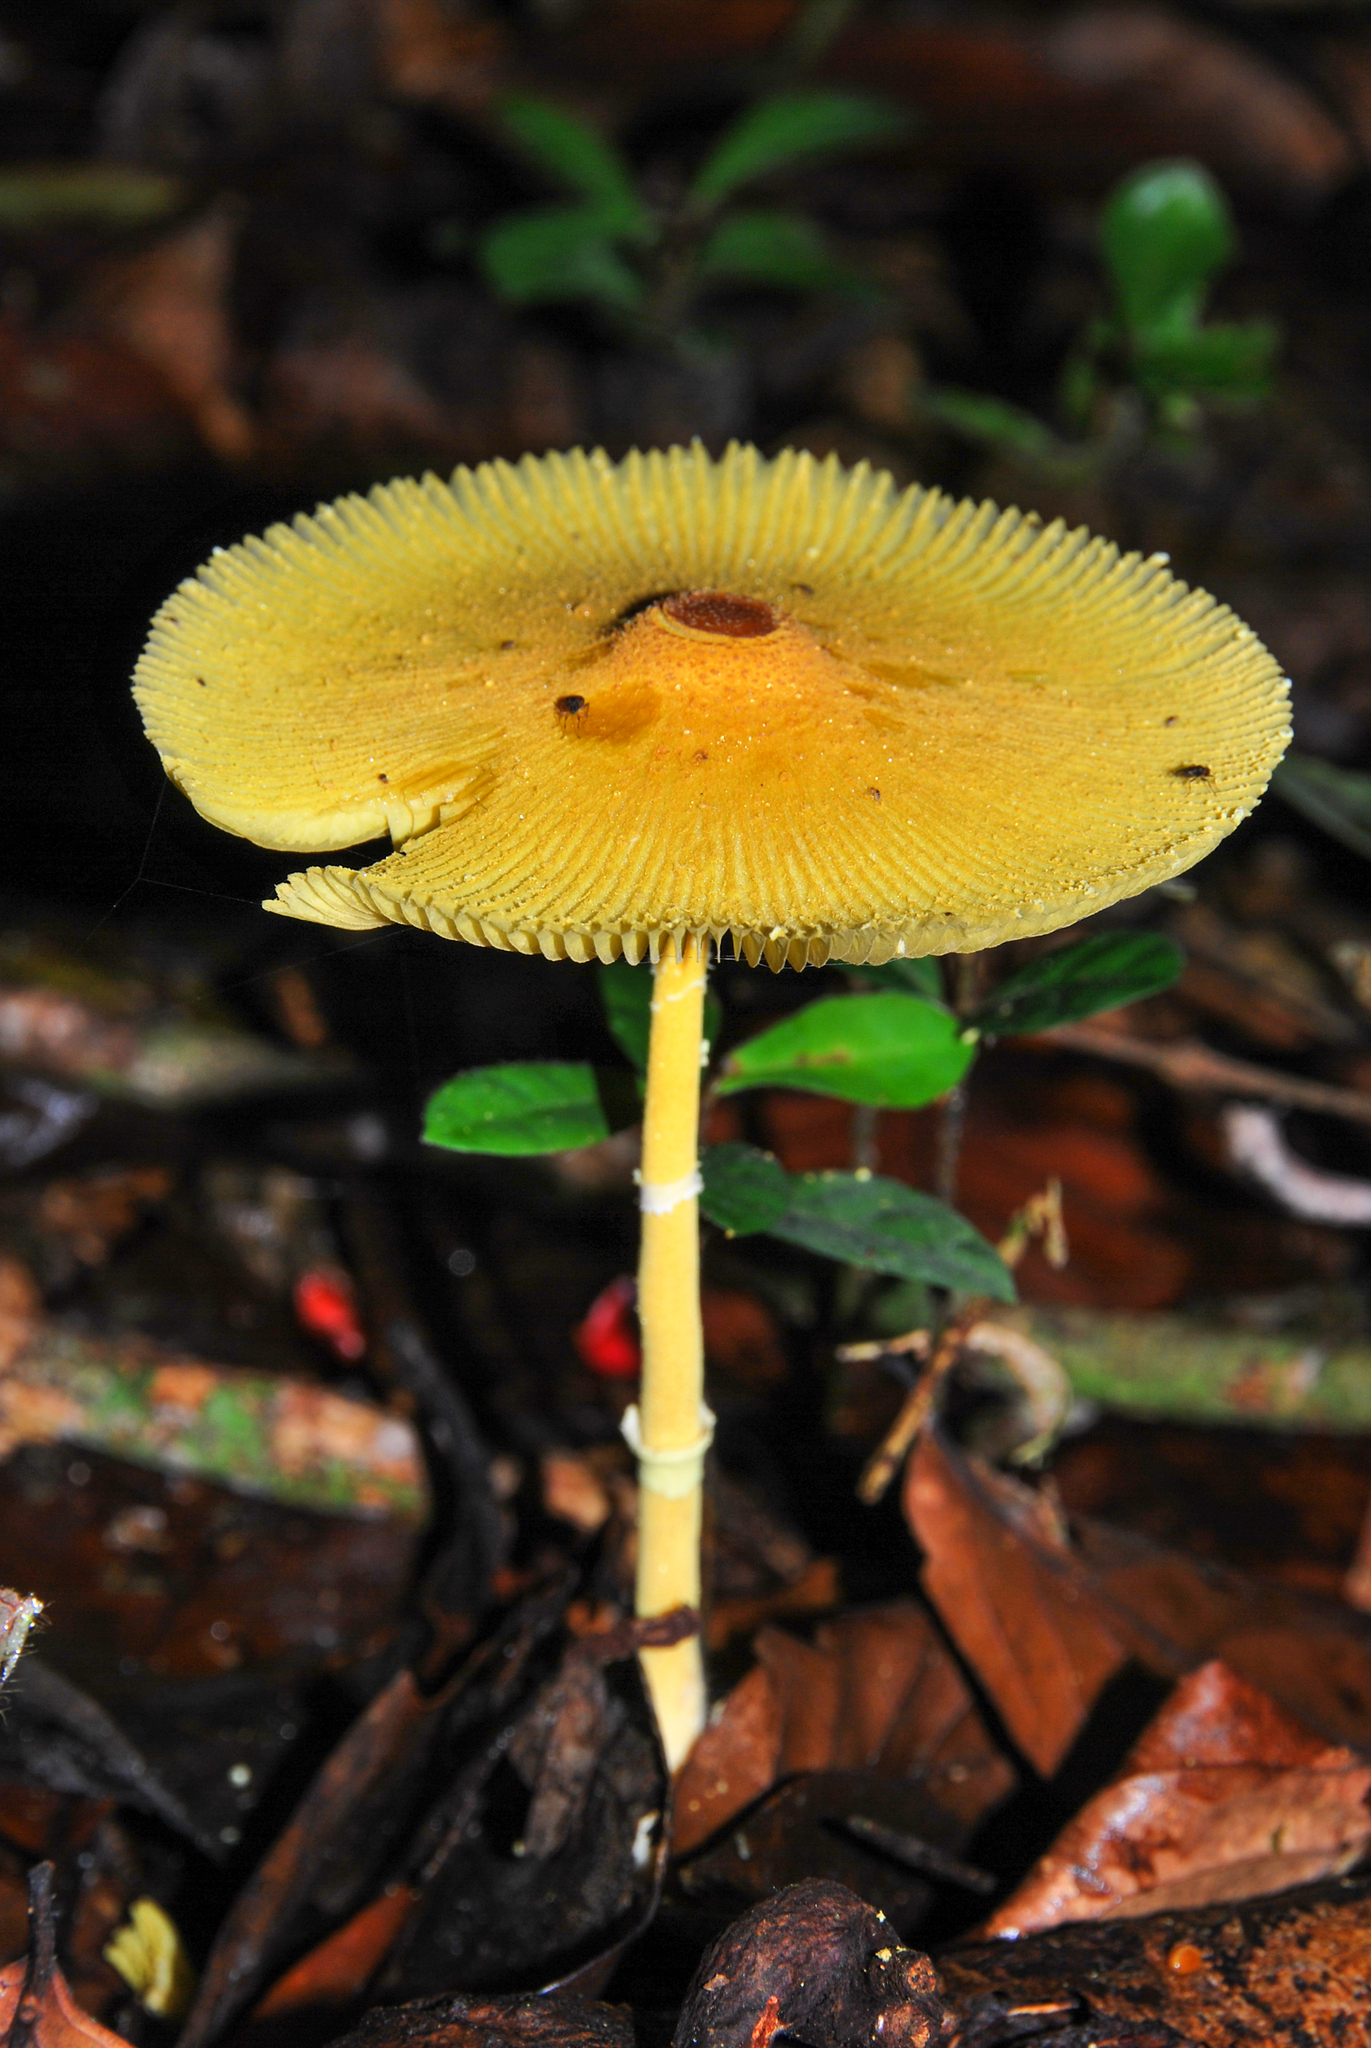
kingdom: Fungi
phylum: Basidiomycota
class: Agaricomycetes
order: Agaricales
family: Agaricaceae
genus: Leucocoprinus
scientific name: Leucocoprinus brunneoluteus
